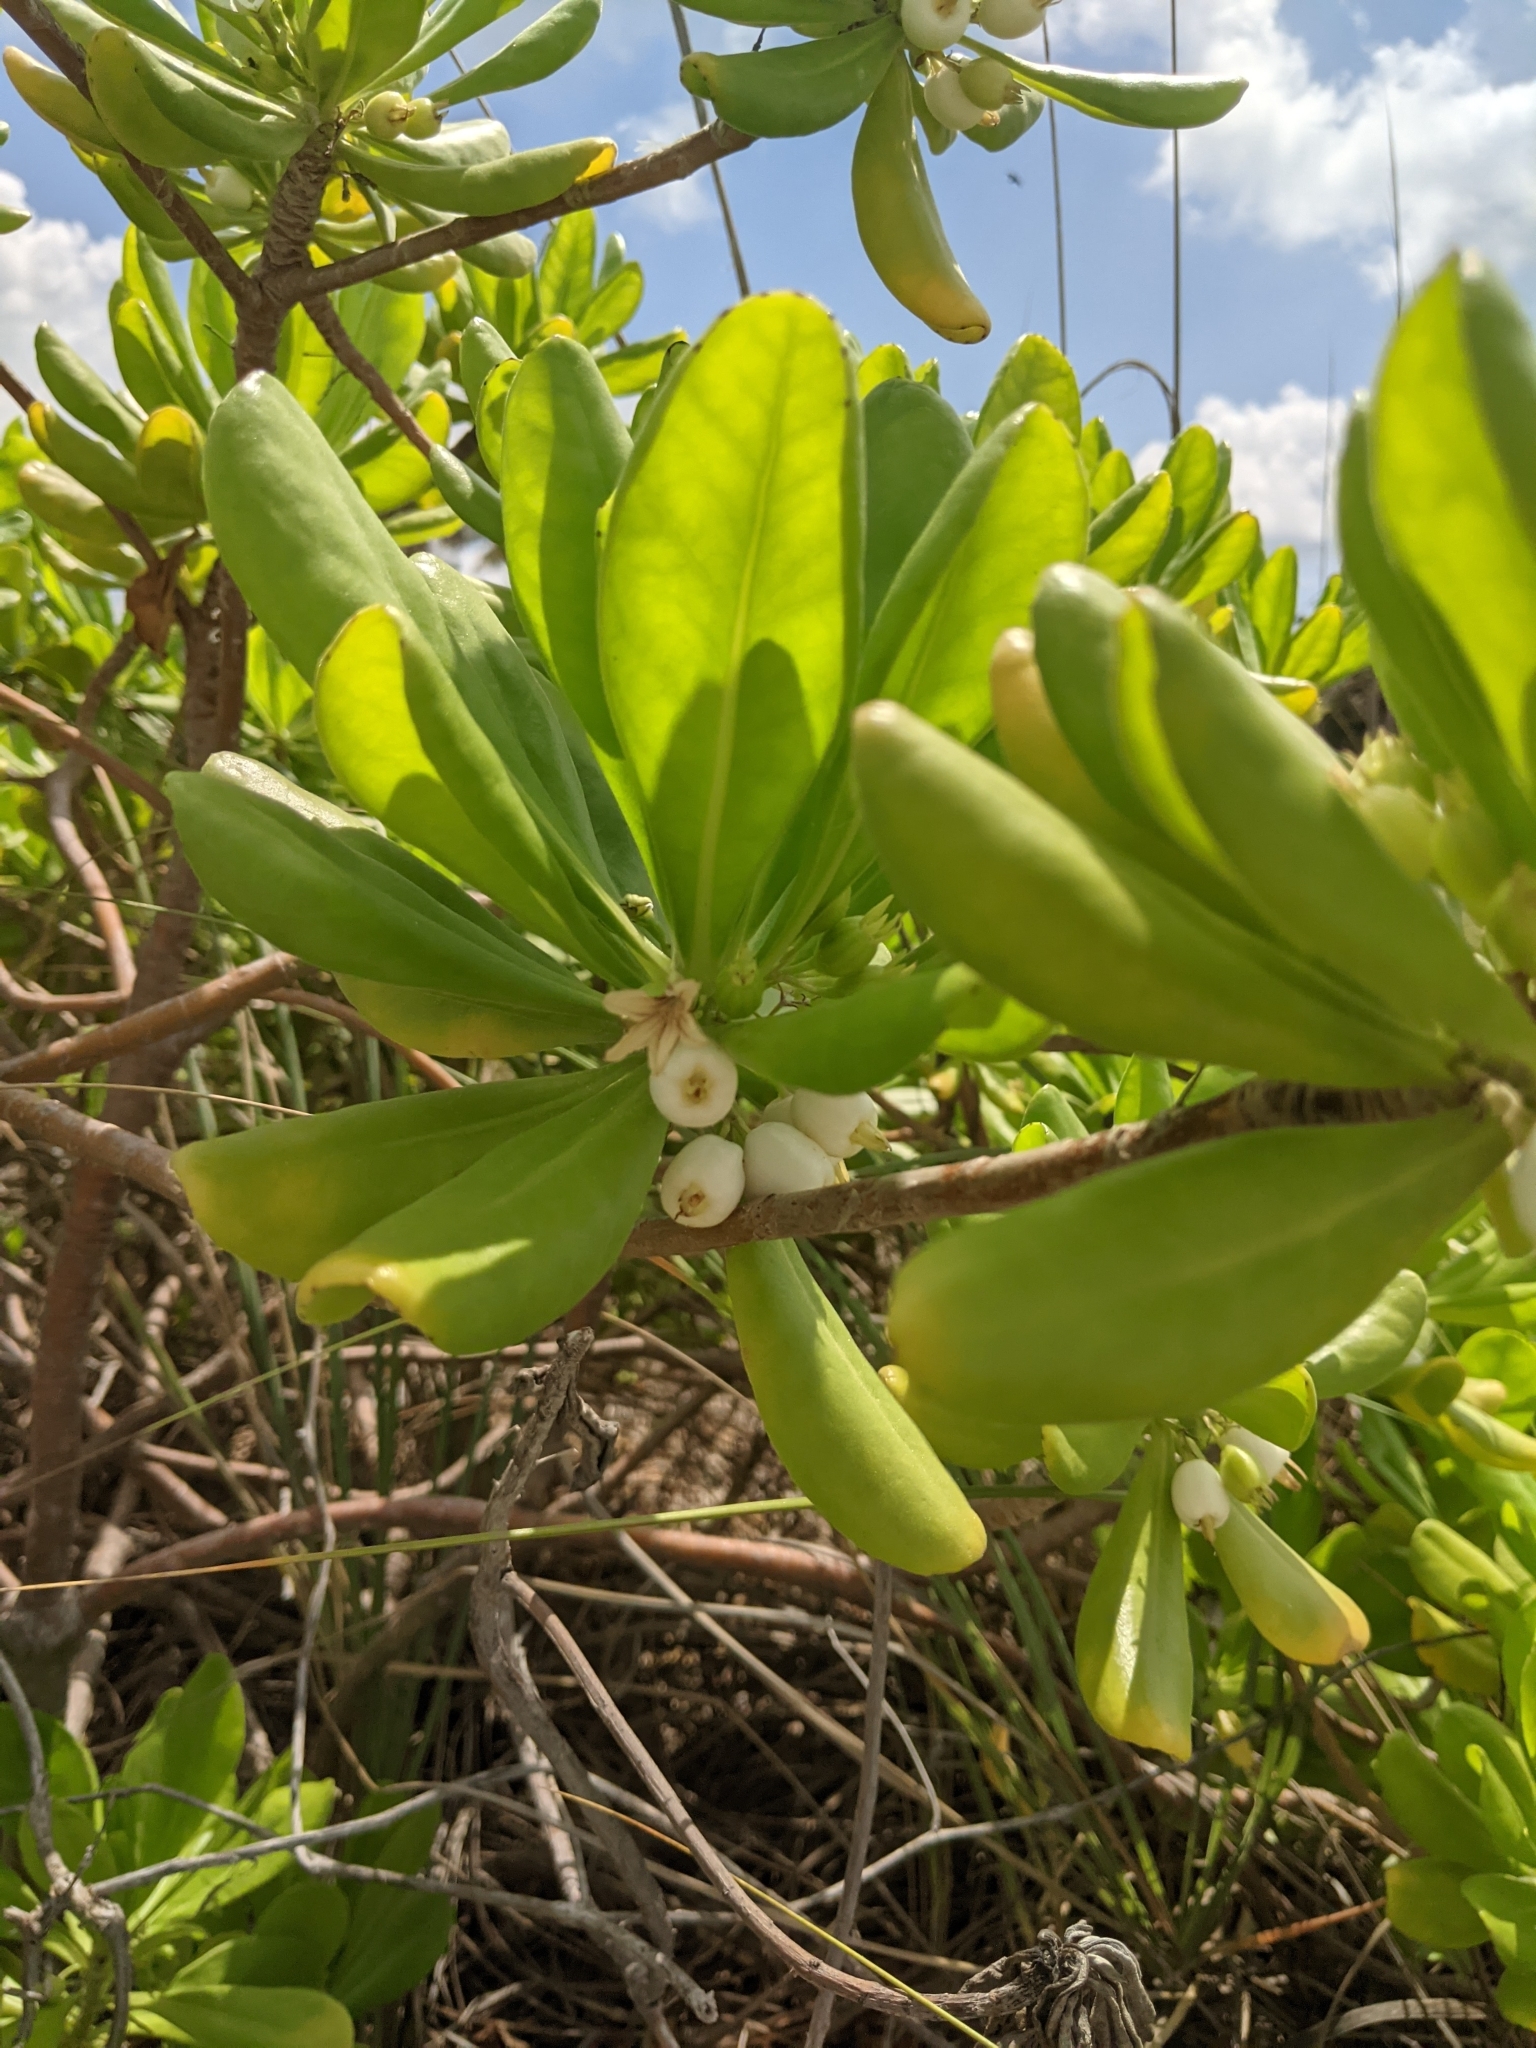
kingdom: Plantae
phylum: Tracheophyta
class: Magnoliopsida
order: Asterales
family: Goodeniaceae
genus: Scaevola
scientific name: Scaevola taccada
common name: Sea lettucetree
